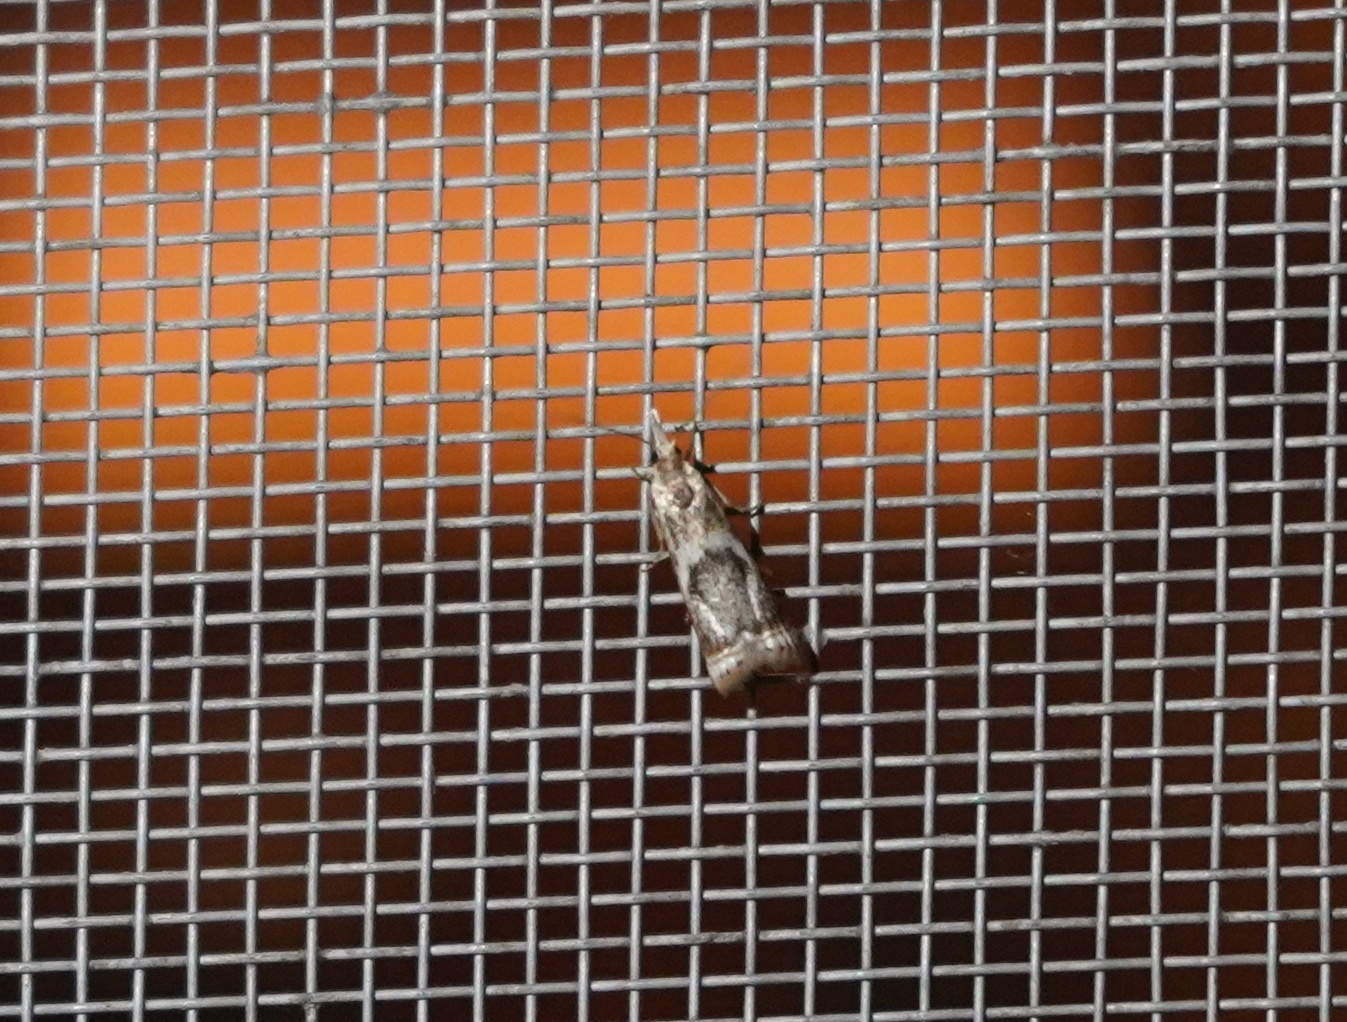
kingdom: Animalia
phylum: Arthropoda
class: Insecta
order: Lepidoptera
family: Crambidae
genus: Microcrambus
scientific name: Microcrambus elegans
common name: Elegant grass-veneer
